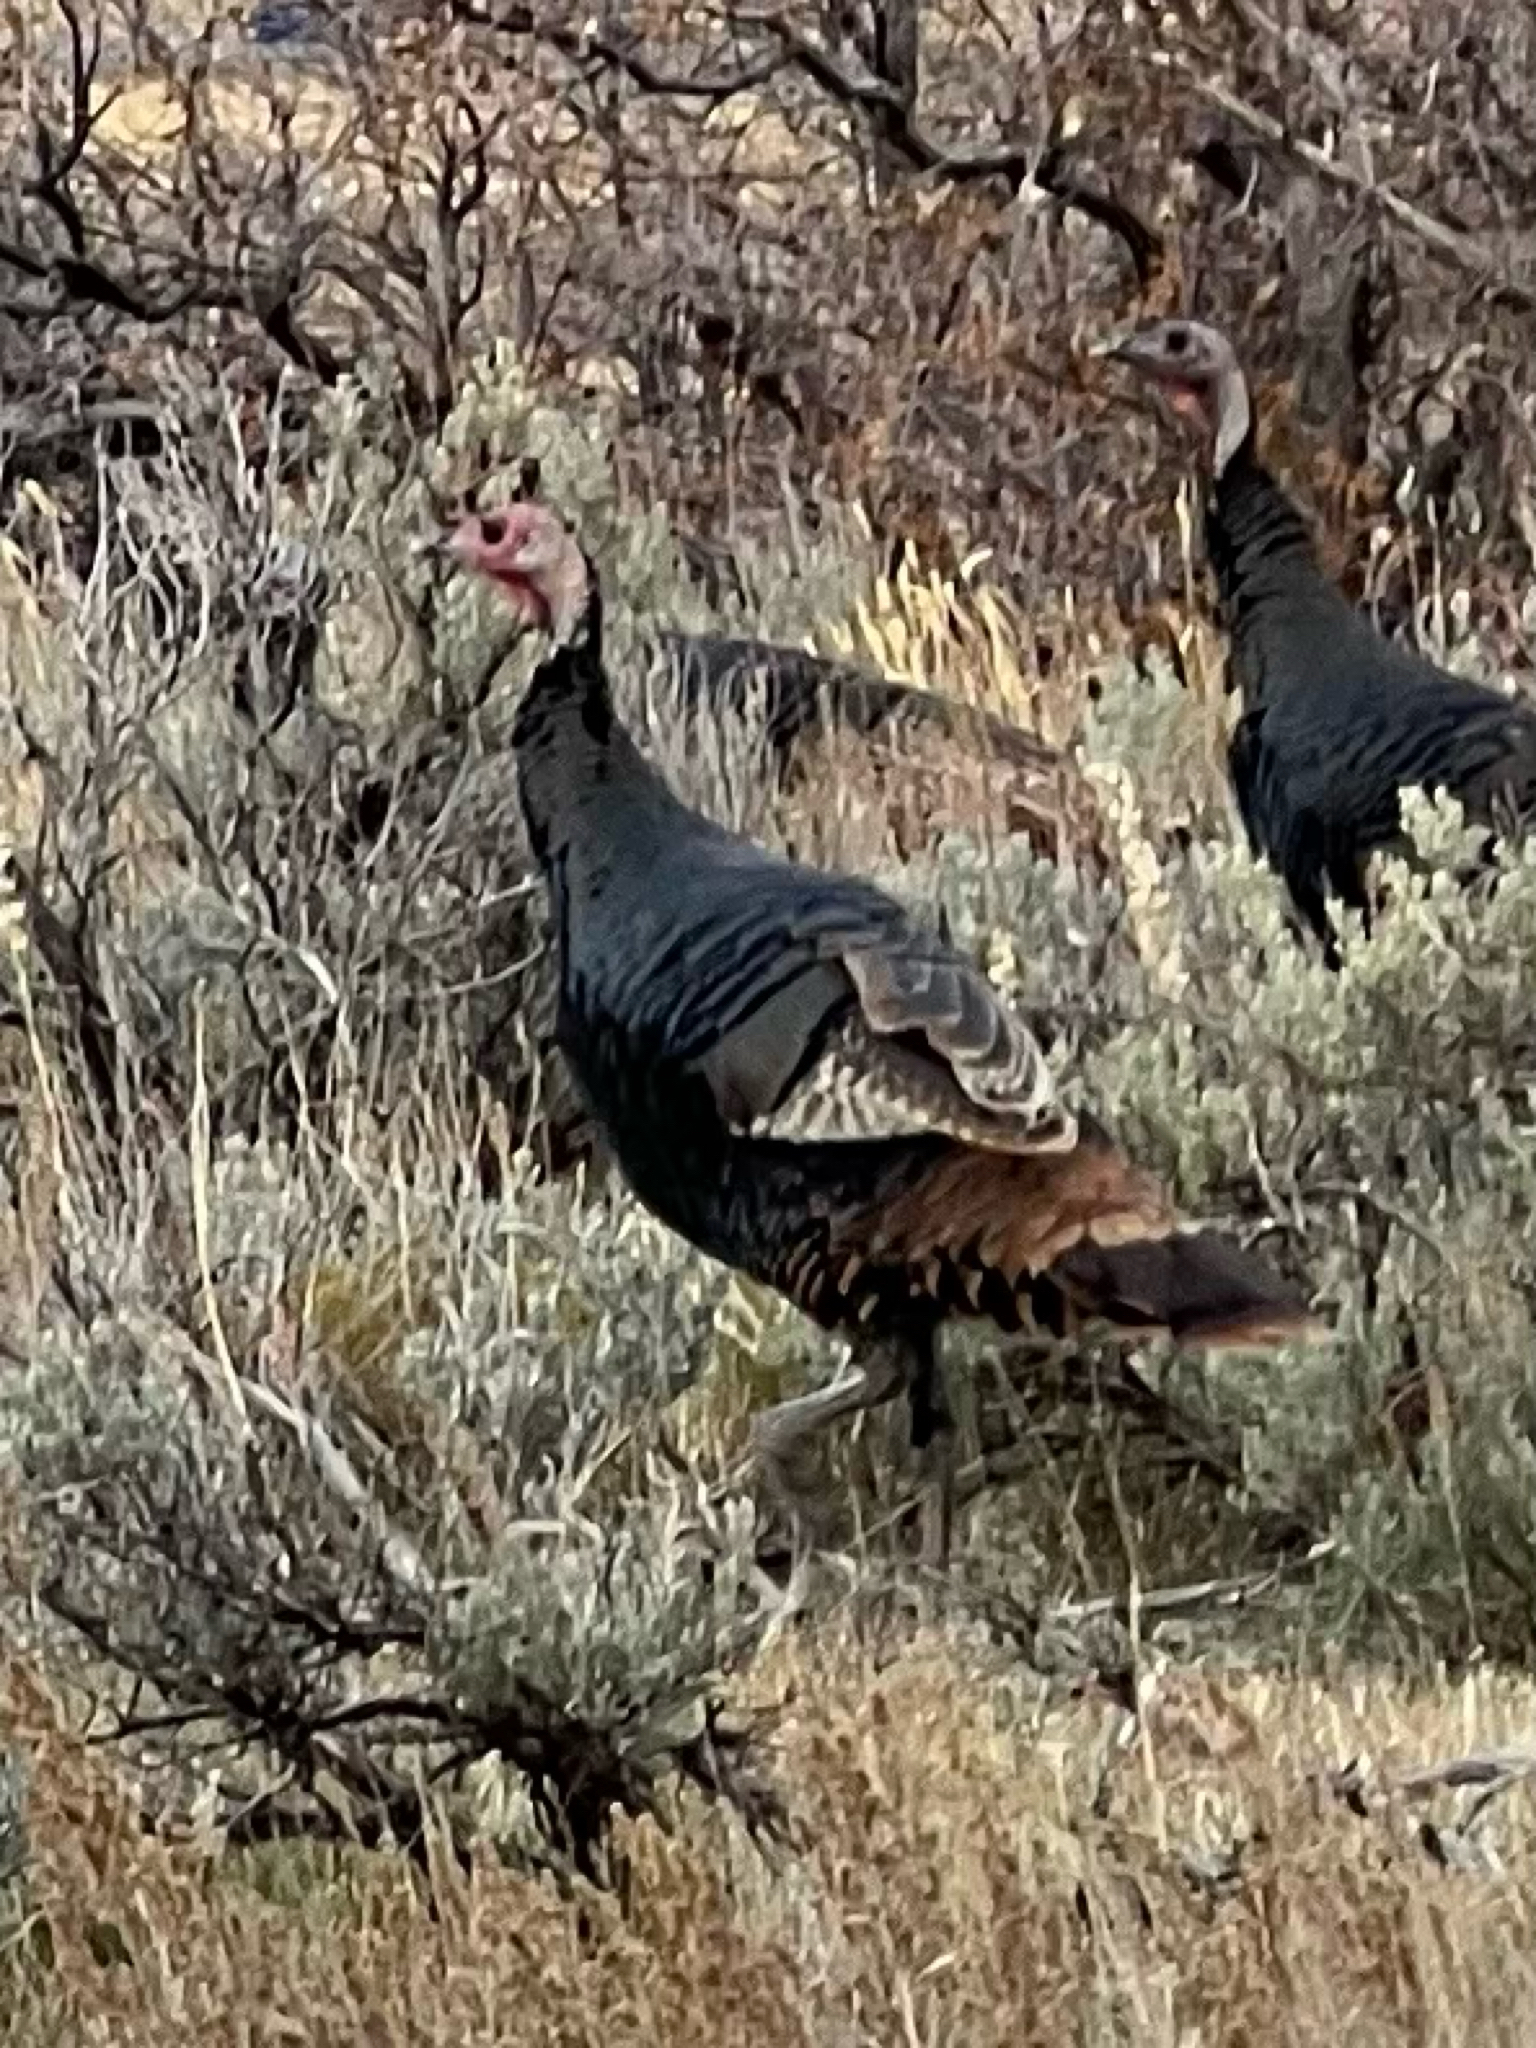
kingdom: Animalia
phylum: Chordata
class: Aves
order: Galliformes
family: Phasianidae
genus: Meleagris
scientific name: Meleagris gallopavo
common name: Wild turkey
